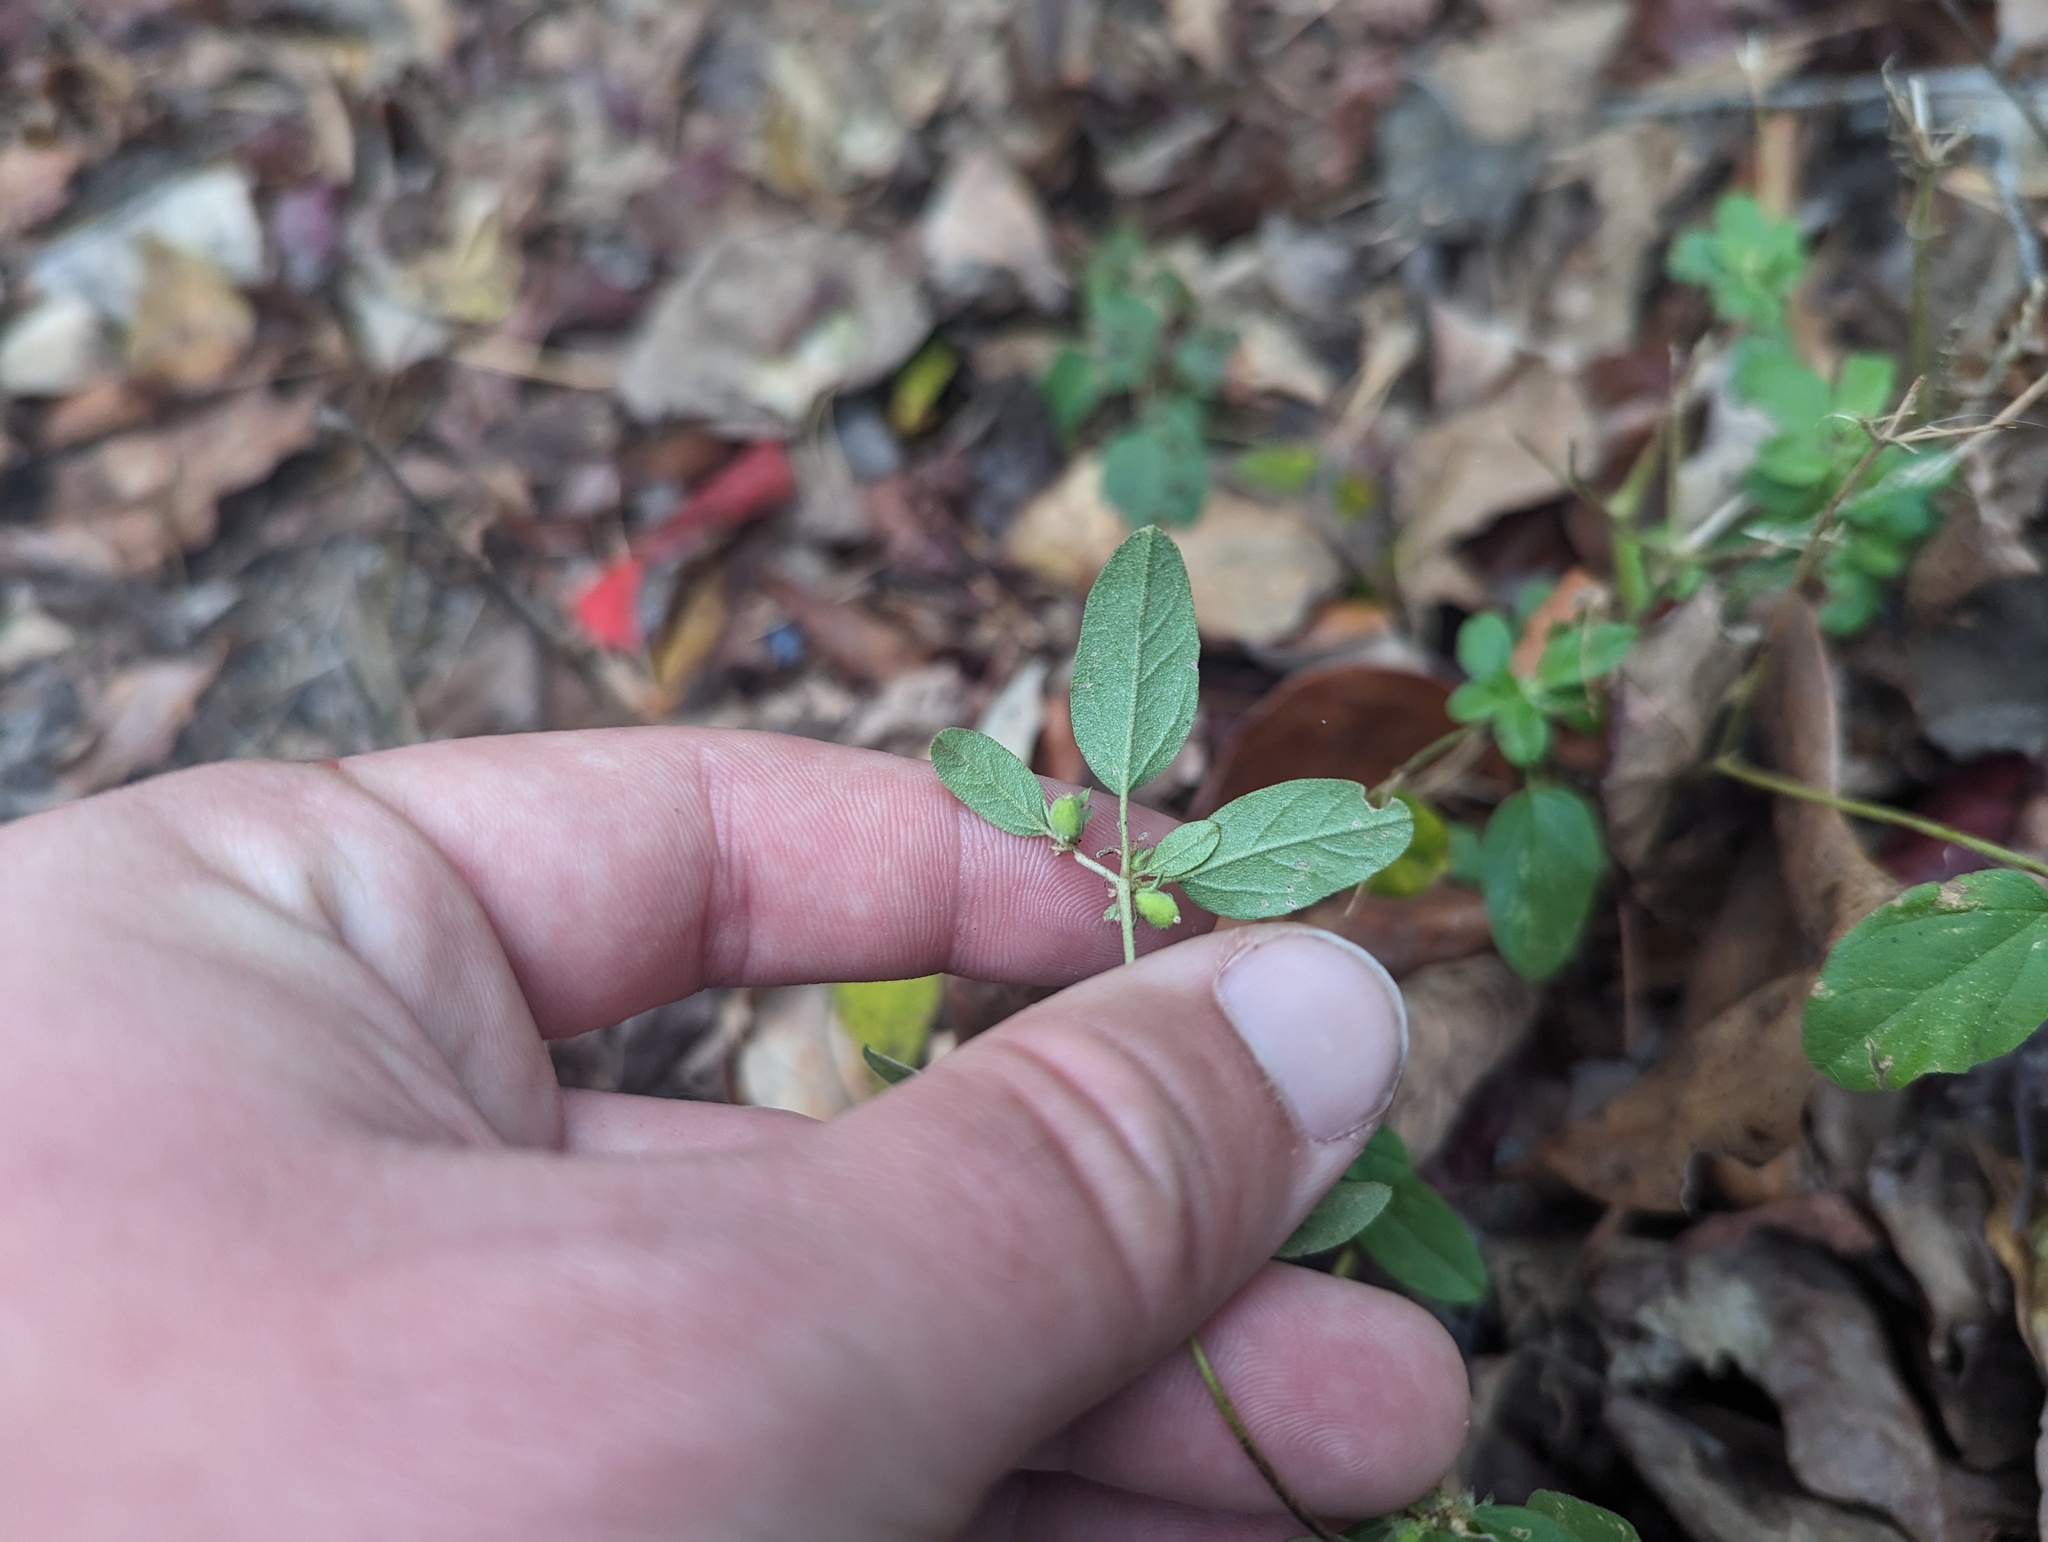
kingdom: Plantae
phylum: Tracheophyta
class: Magnoliopsida
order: Malpighiales
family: Euphorbiaceae
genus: Croton
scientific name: Croton monanthogynus
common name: One-seed croton
